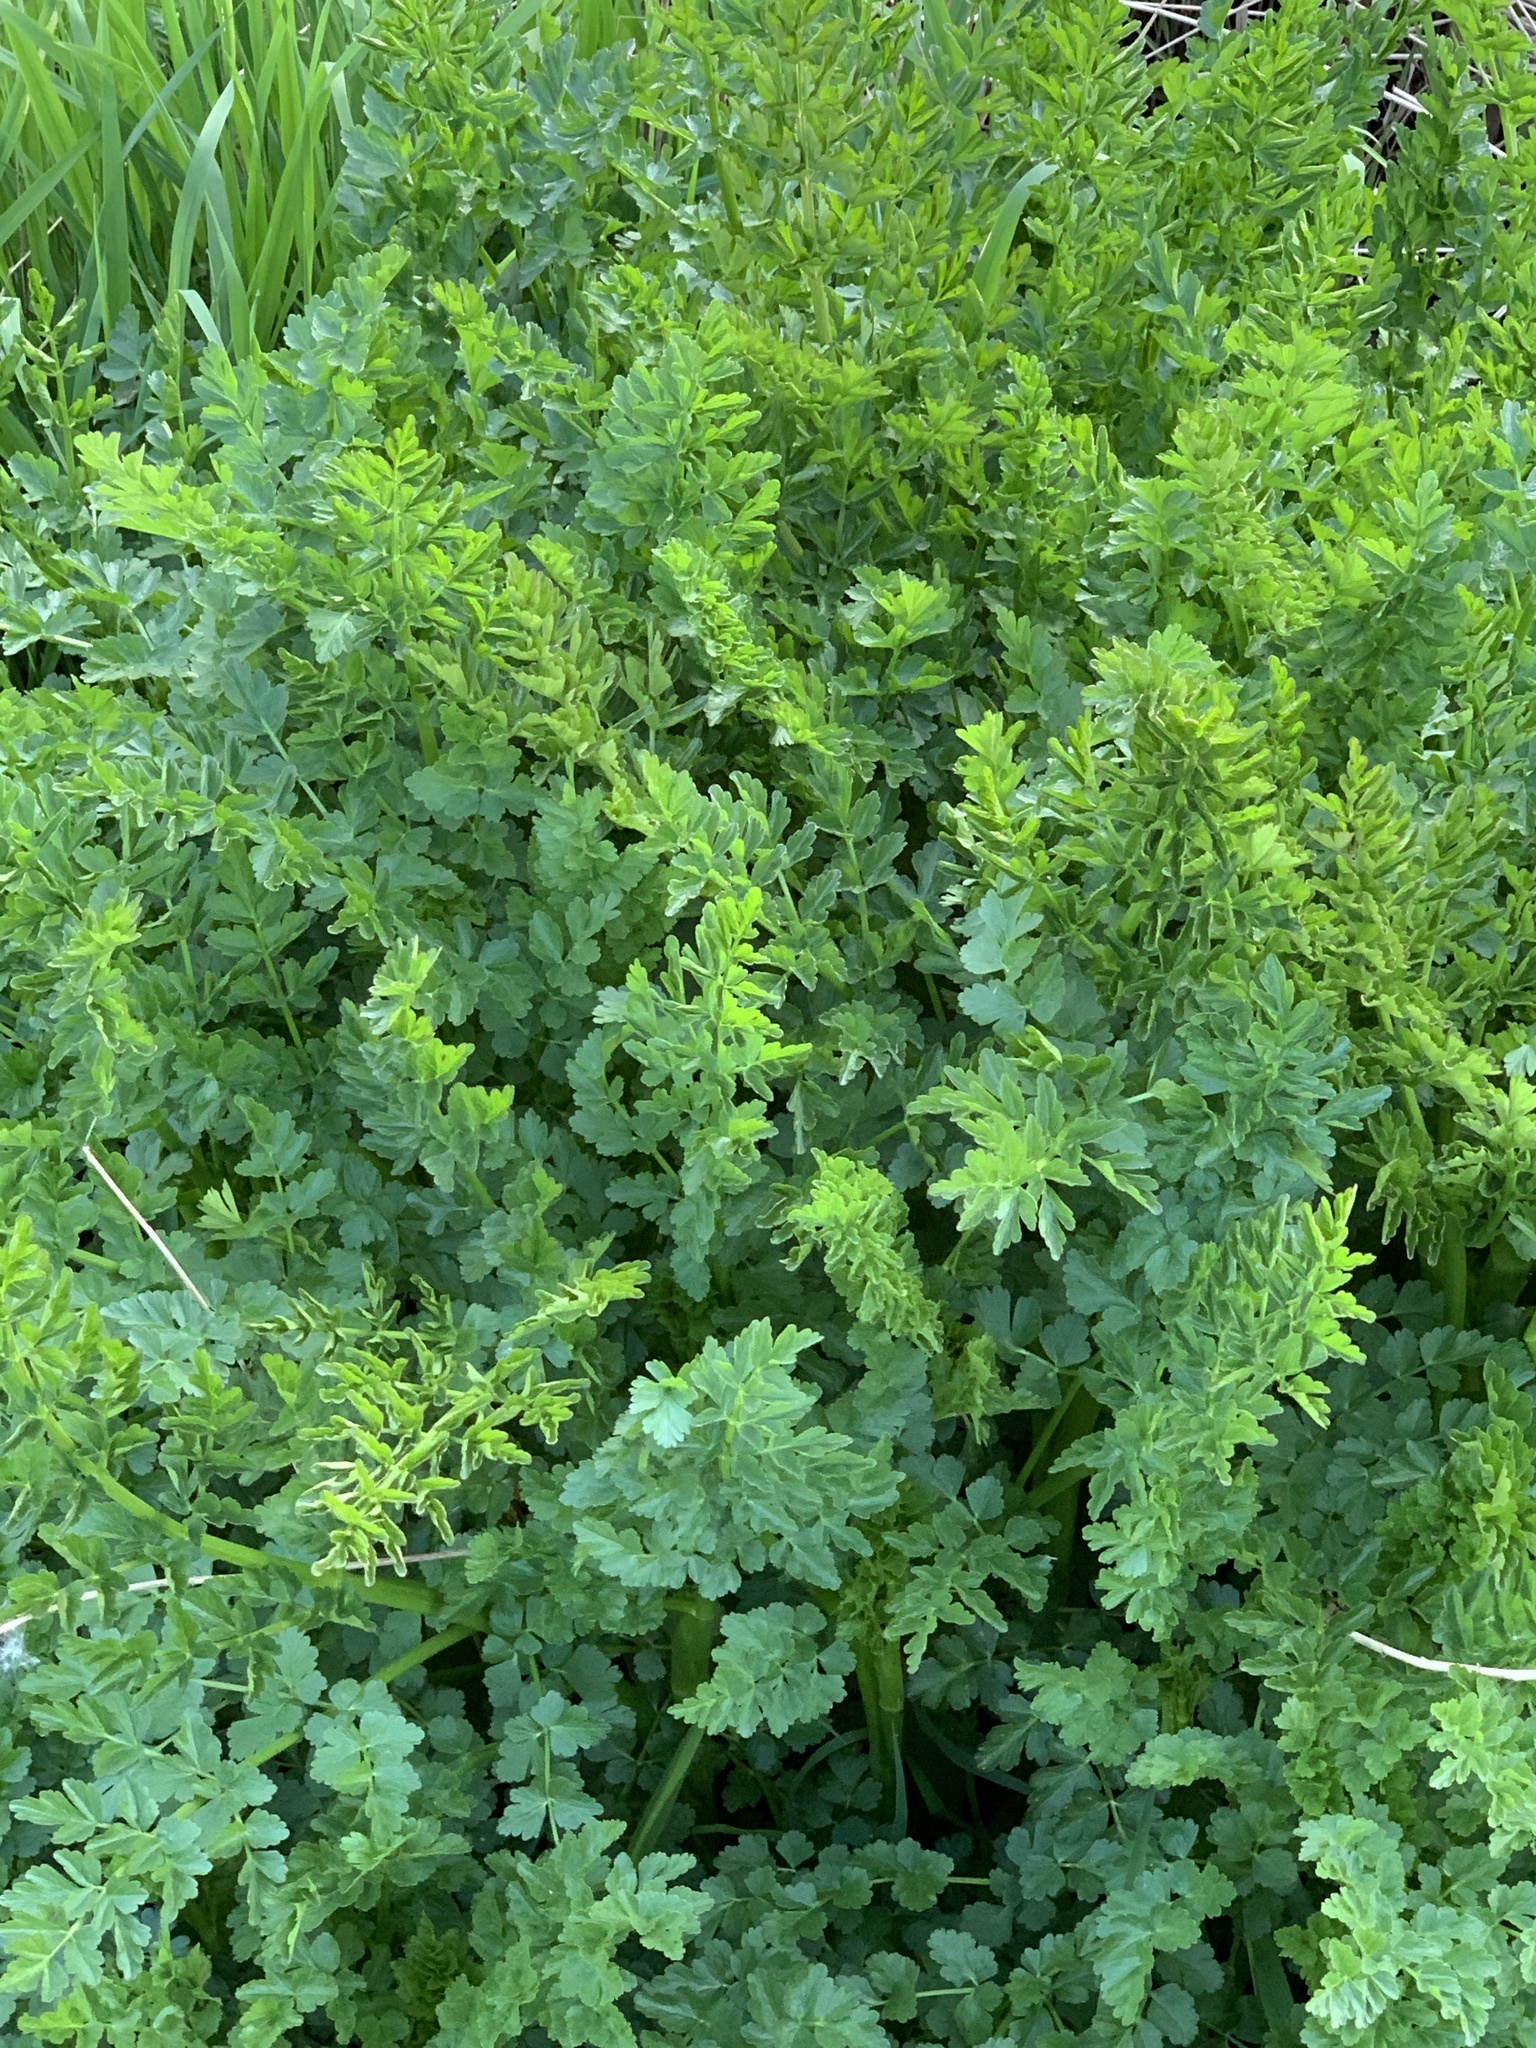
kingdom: Plantae
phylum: Tracheophyta
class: Magnoliopsida
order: Apiales
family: Apiaceae
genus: Oenanthe
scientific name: Oenanthe crocata
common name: Hemlock water-dropwort
